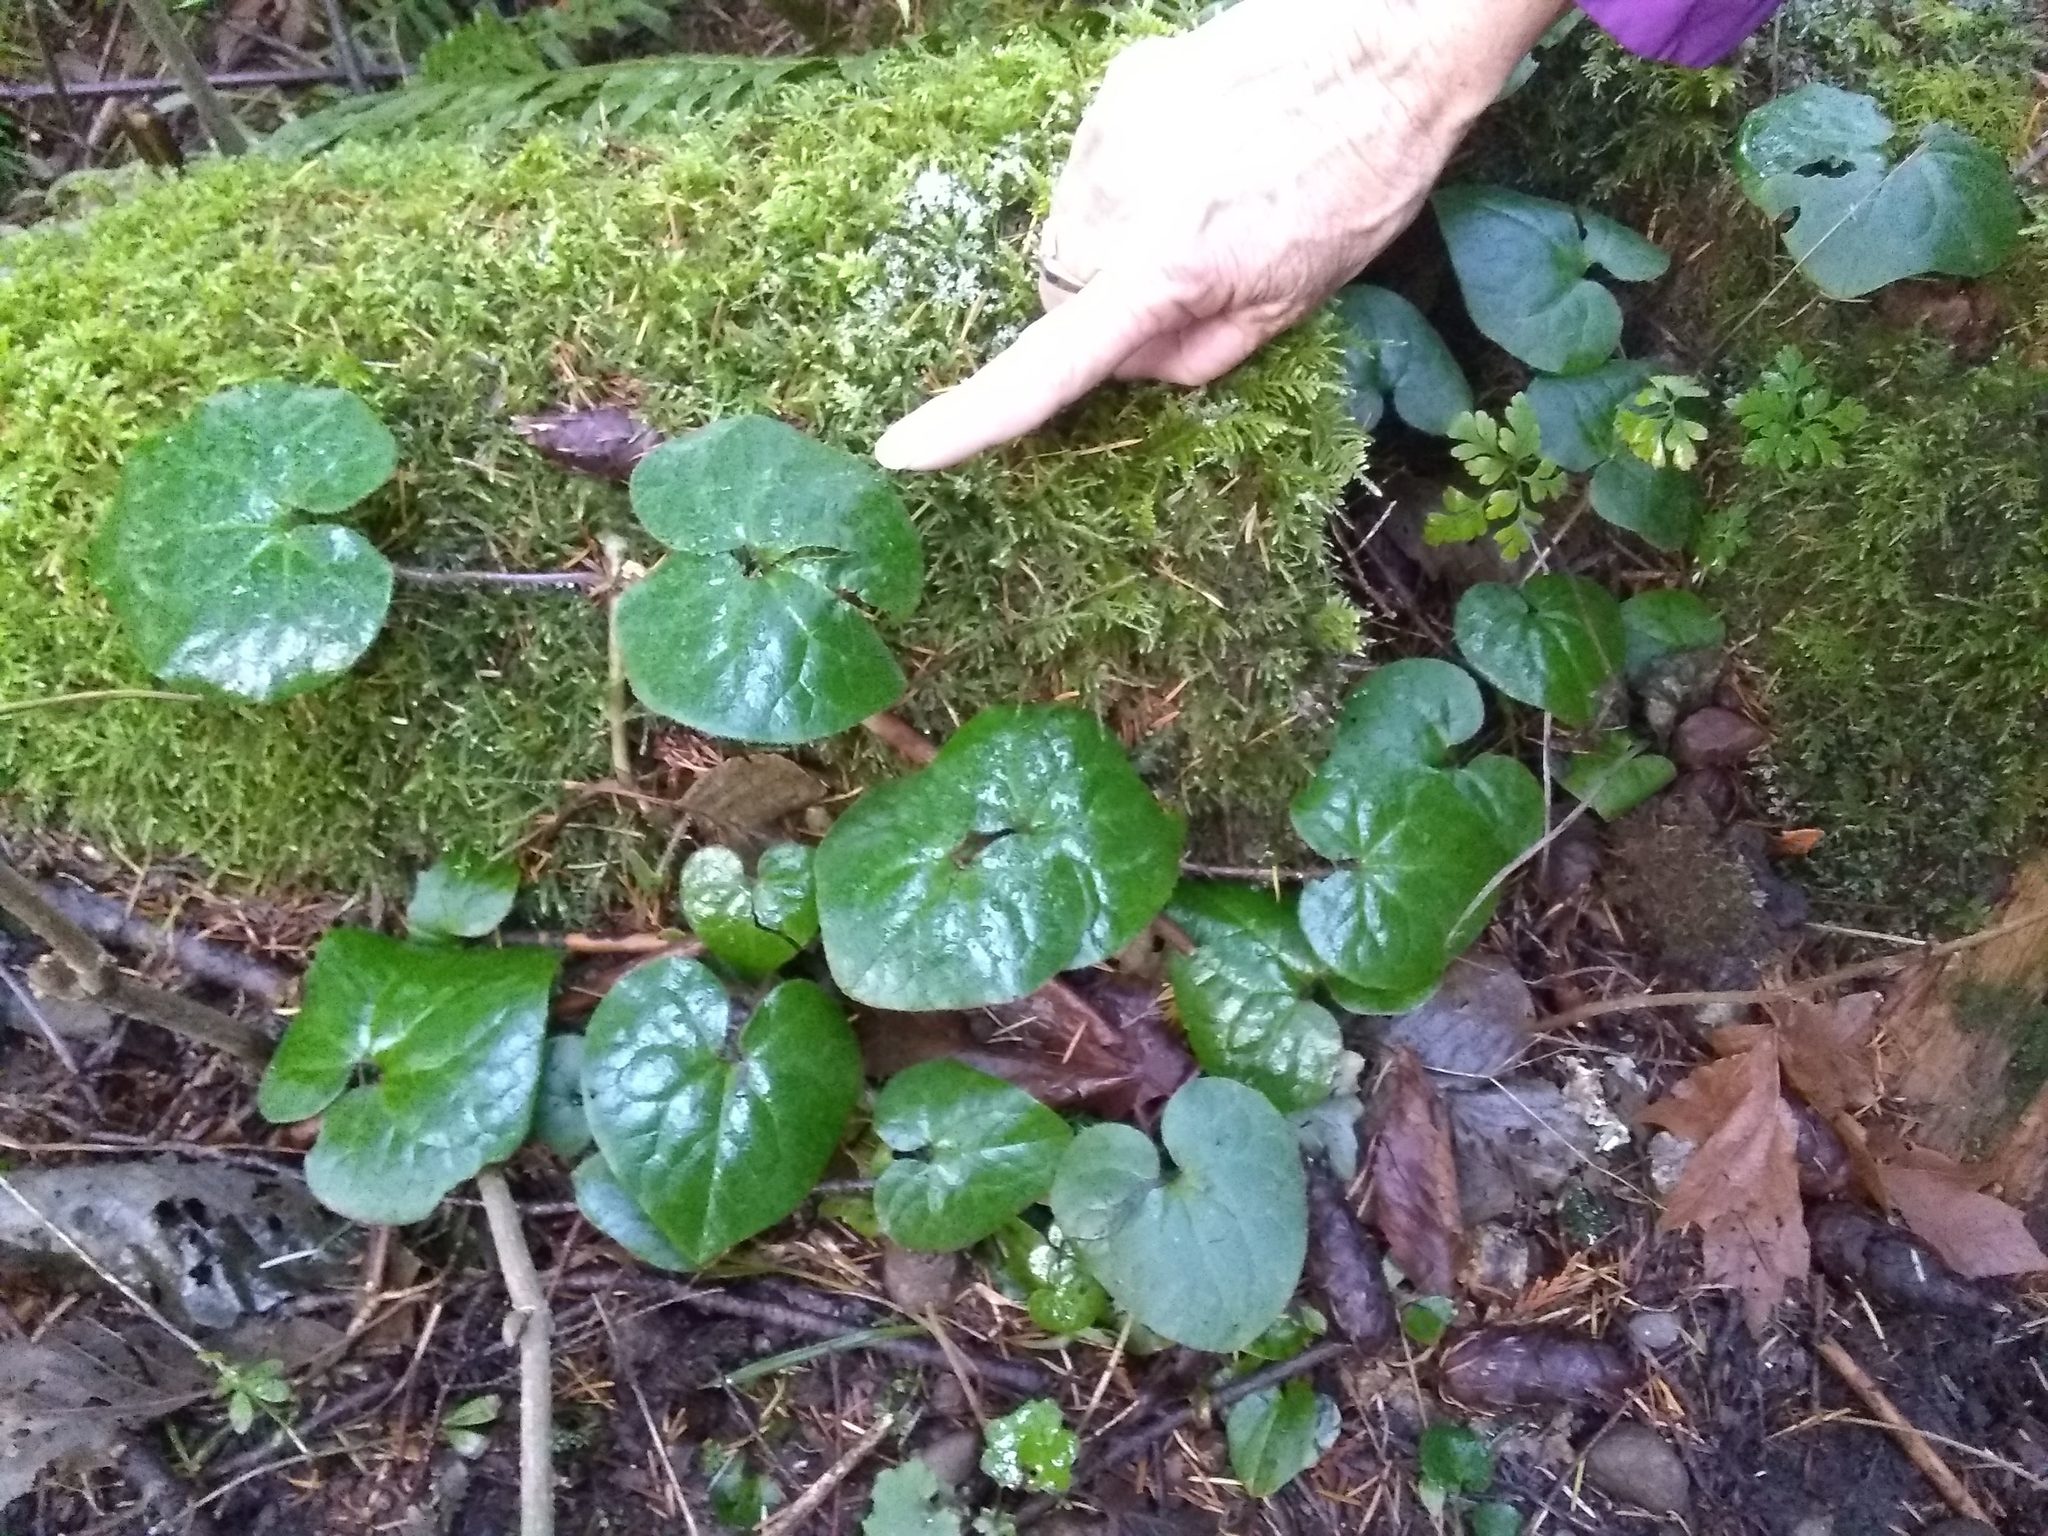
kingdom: Plantae
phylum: Tracheophyta
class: Magnoliopsida
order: Piperales
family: Aristolochiaceae
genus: Asarum
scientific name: Asarum caudatum
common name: Wild ginger
